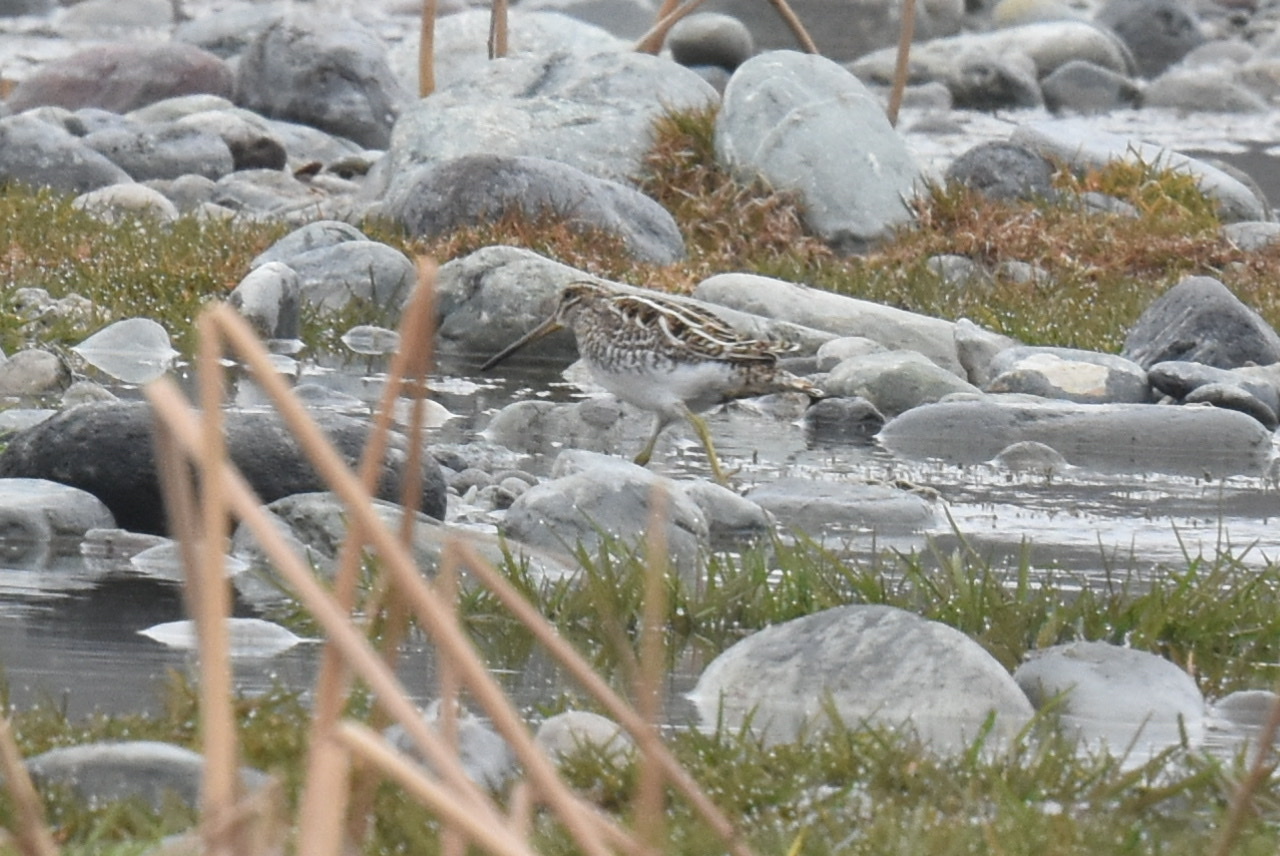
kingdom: Animalia
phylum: Chordata
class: Aves
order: Charadriiformes
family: Scolopacidae
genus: Gallinago
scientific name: Gallinago gallinago
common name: Common snipe
